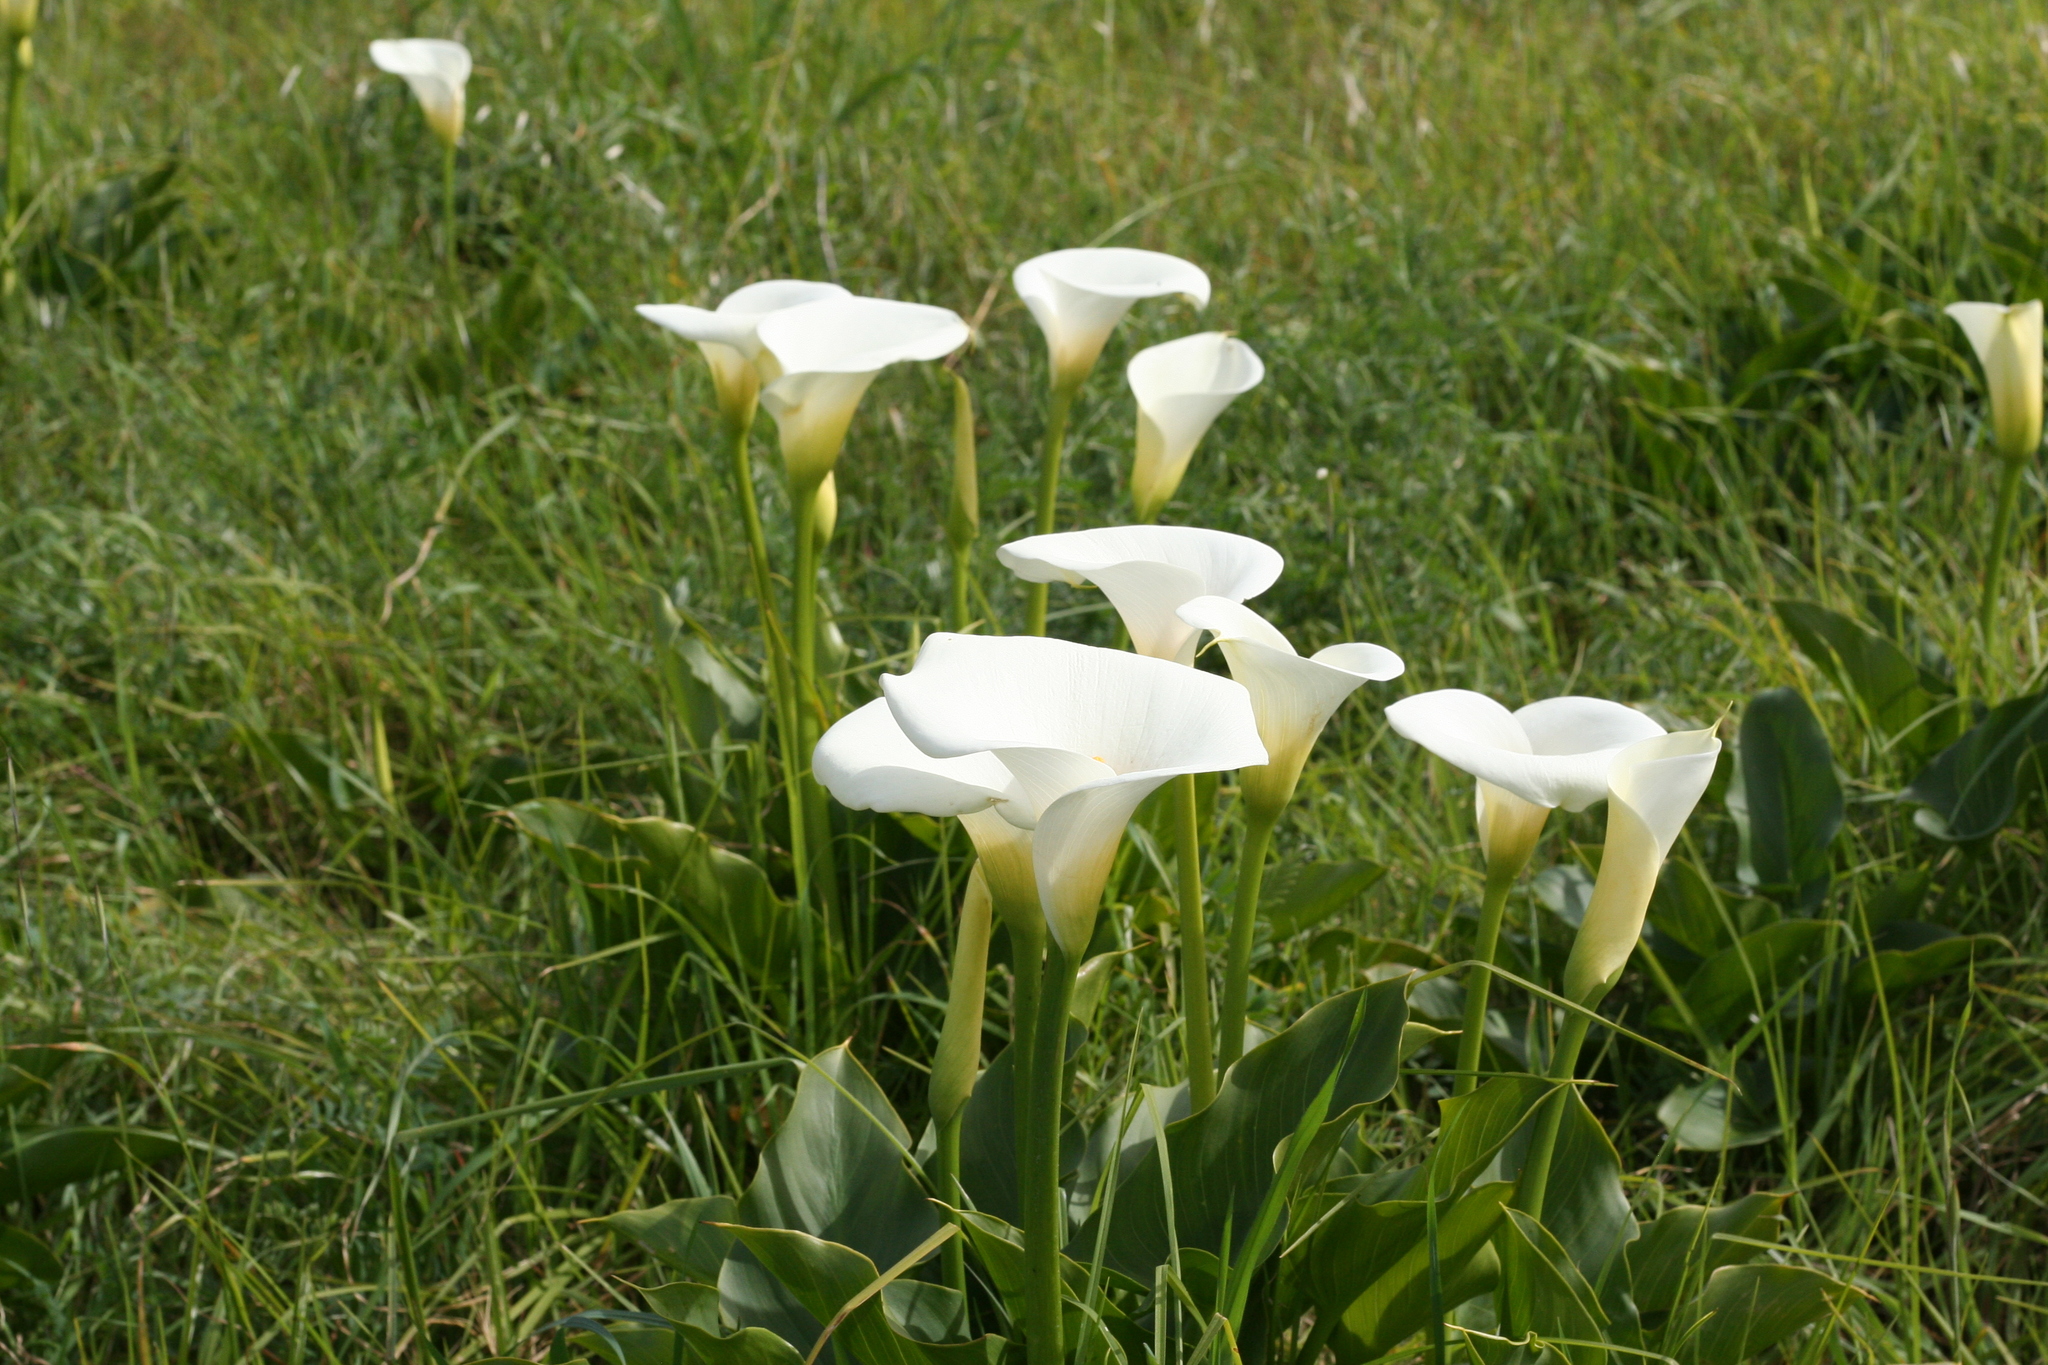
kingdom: Plantae
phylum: Tracheophyta
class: Liliopsida
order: Alismatales
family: Araceae
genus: Zantedeschia
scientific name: Zantedeschia aethiopica
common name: Altar-lily
